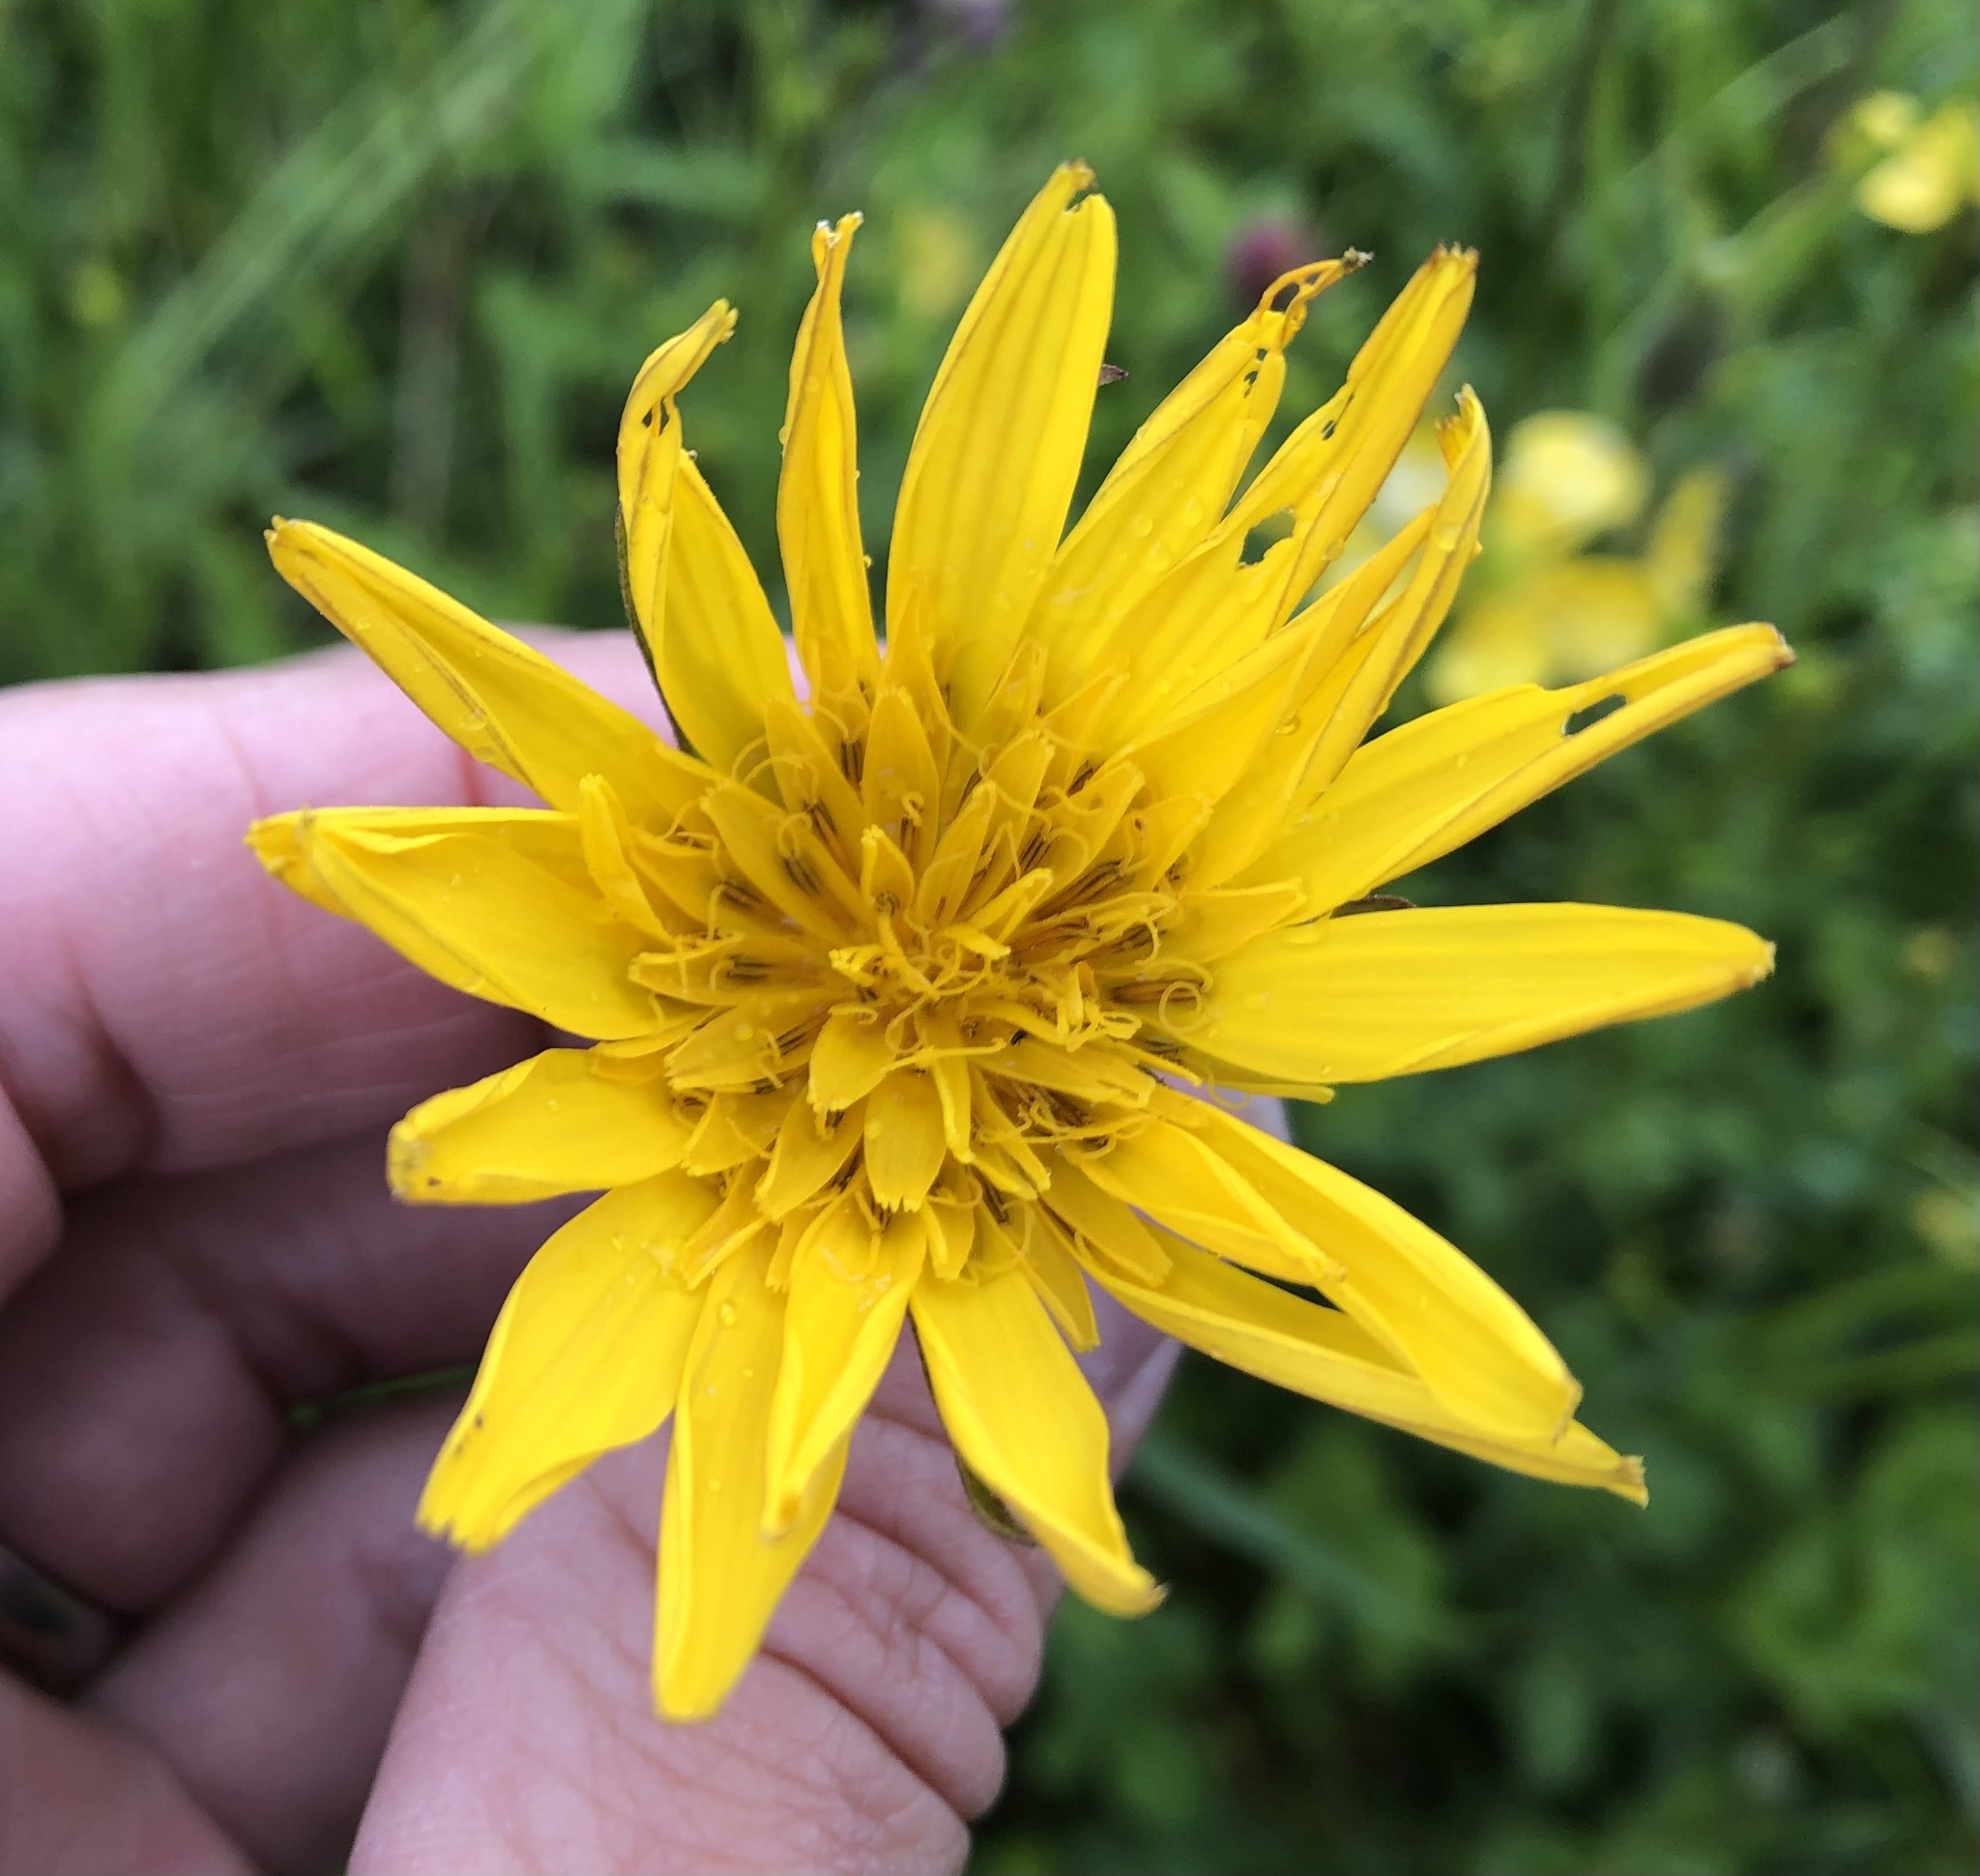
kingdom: Plantae
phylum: Tracheophyta
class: Magnoliopsida
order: Asterales
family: Asteraceae
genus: Tragopogon
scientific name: Tragopogon orientalis
